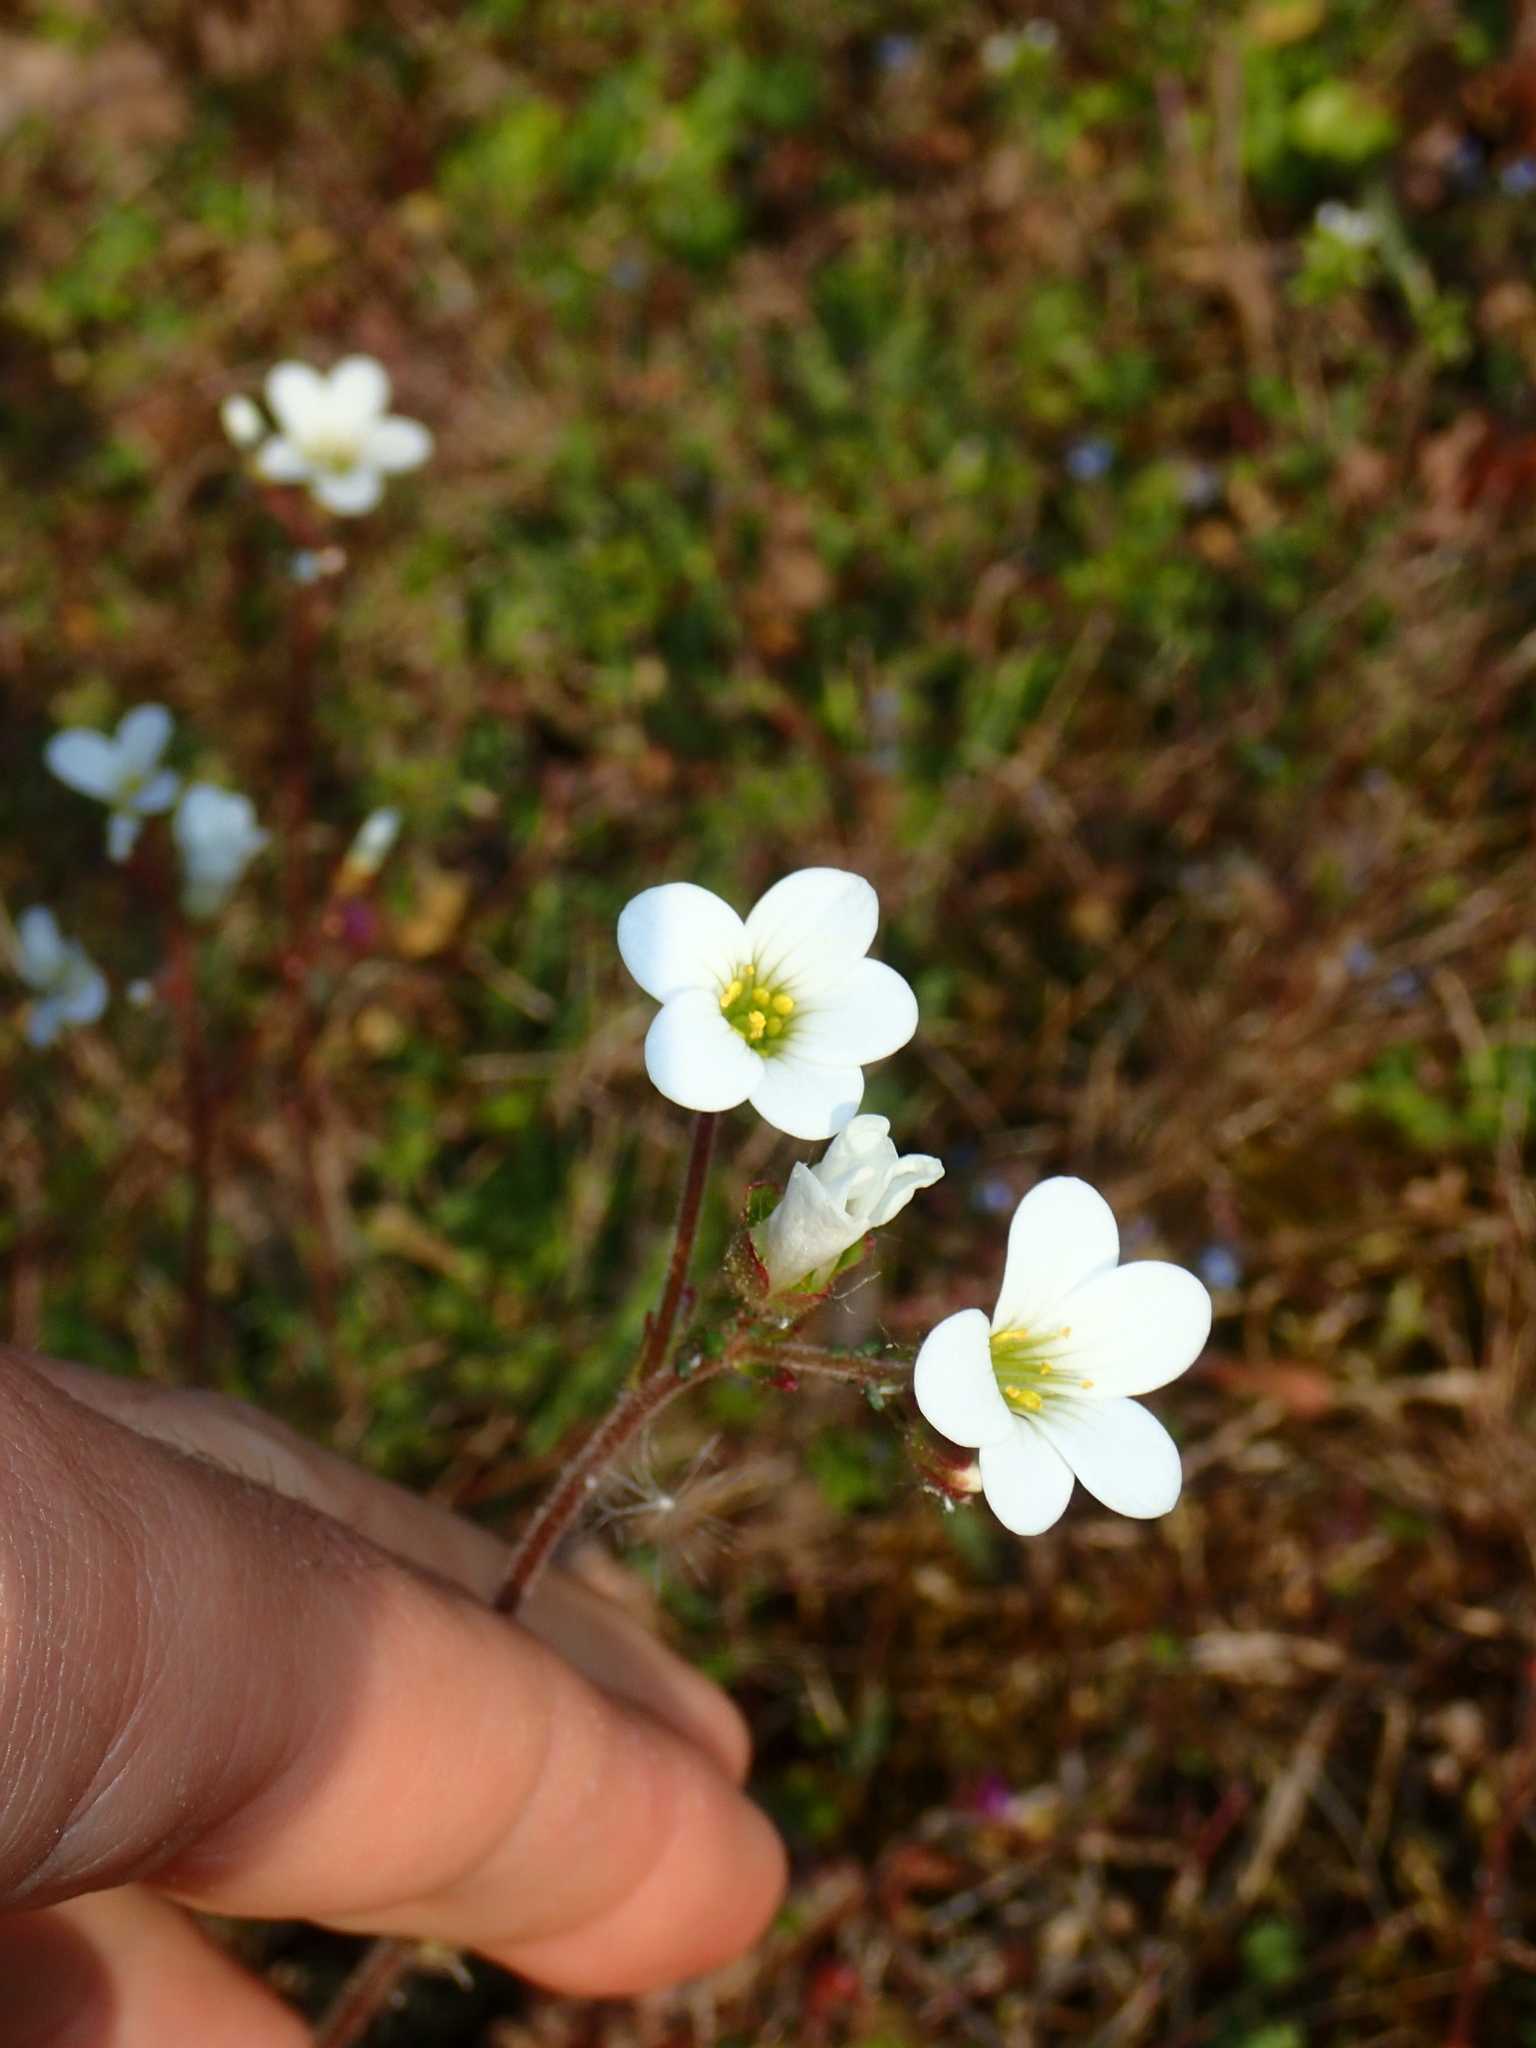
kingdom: Plantae
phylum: Tracheophyta
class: Magnoliopsida
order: Saxifragales
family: Saxifragaceae
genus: Saxifraga
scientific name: Saxifraga granulata
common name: Meadow saxifrage
